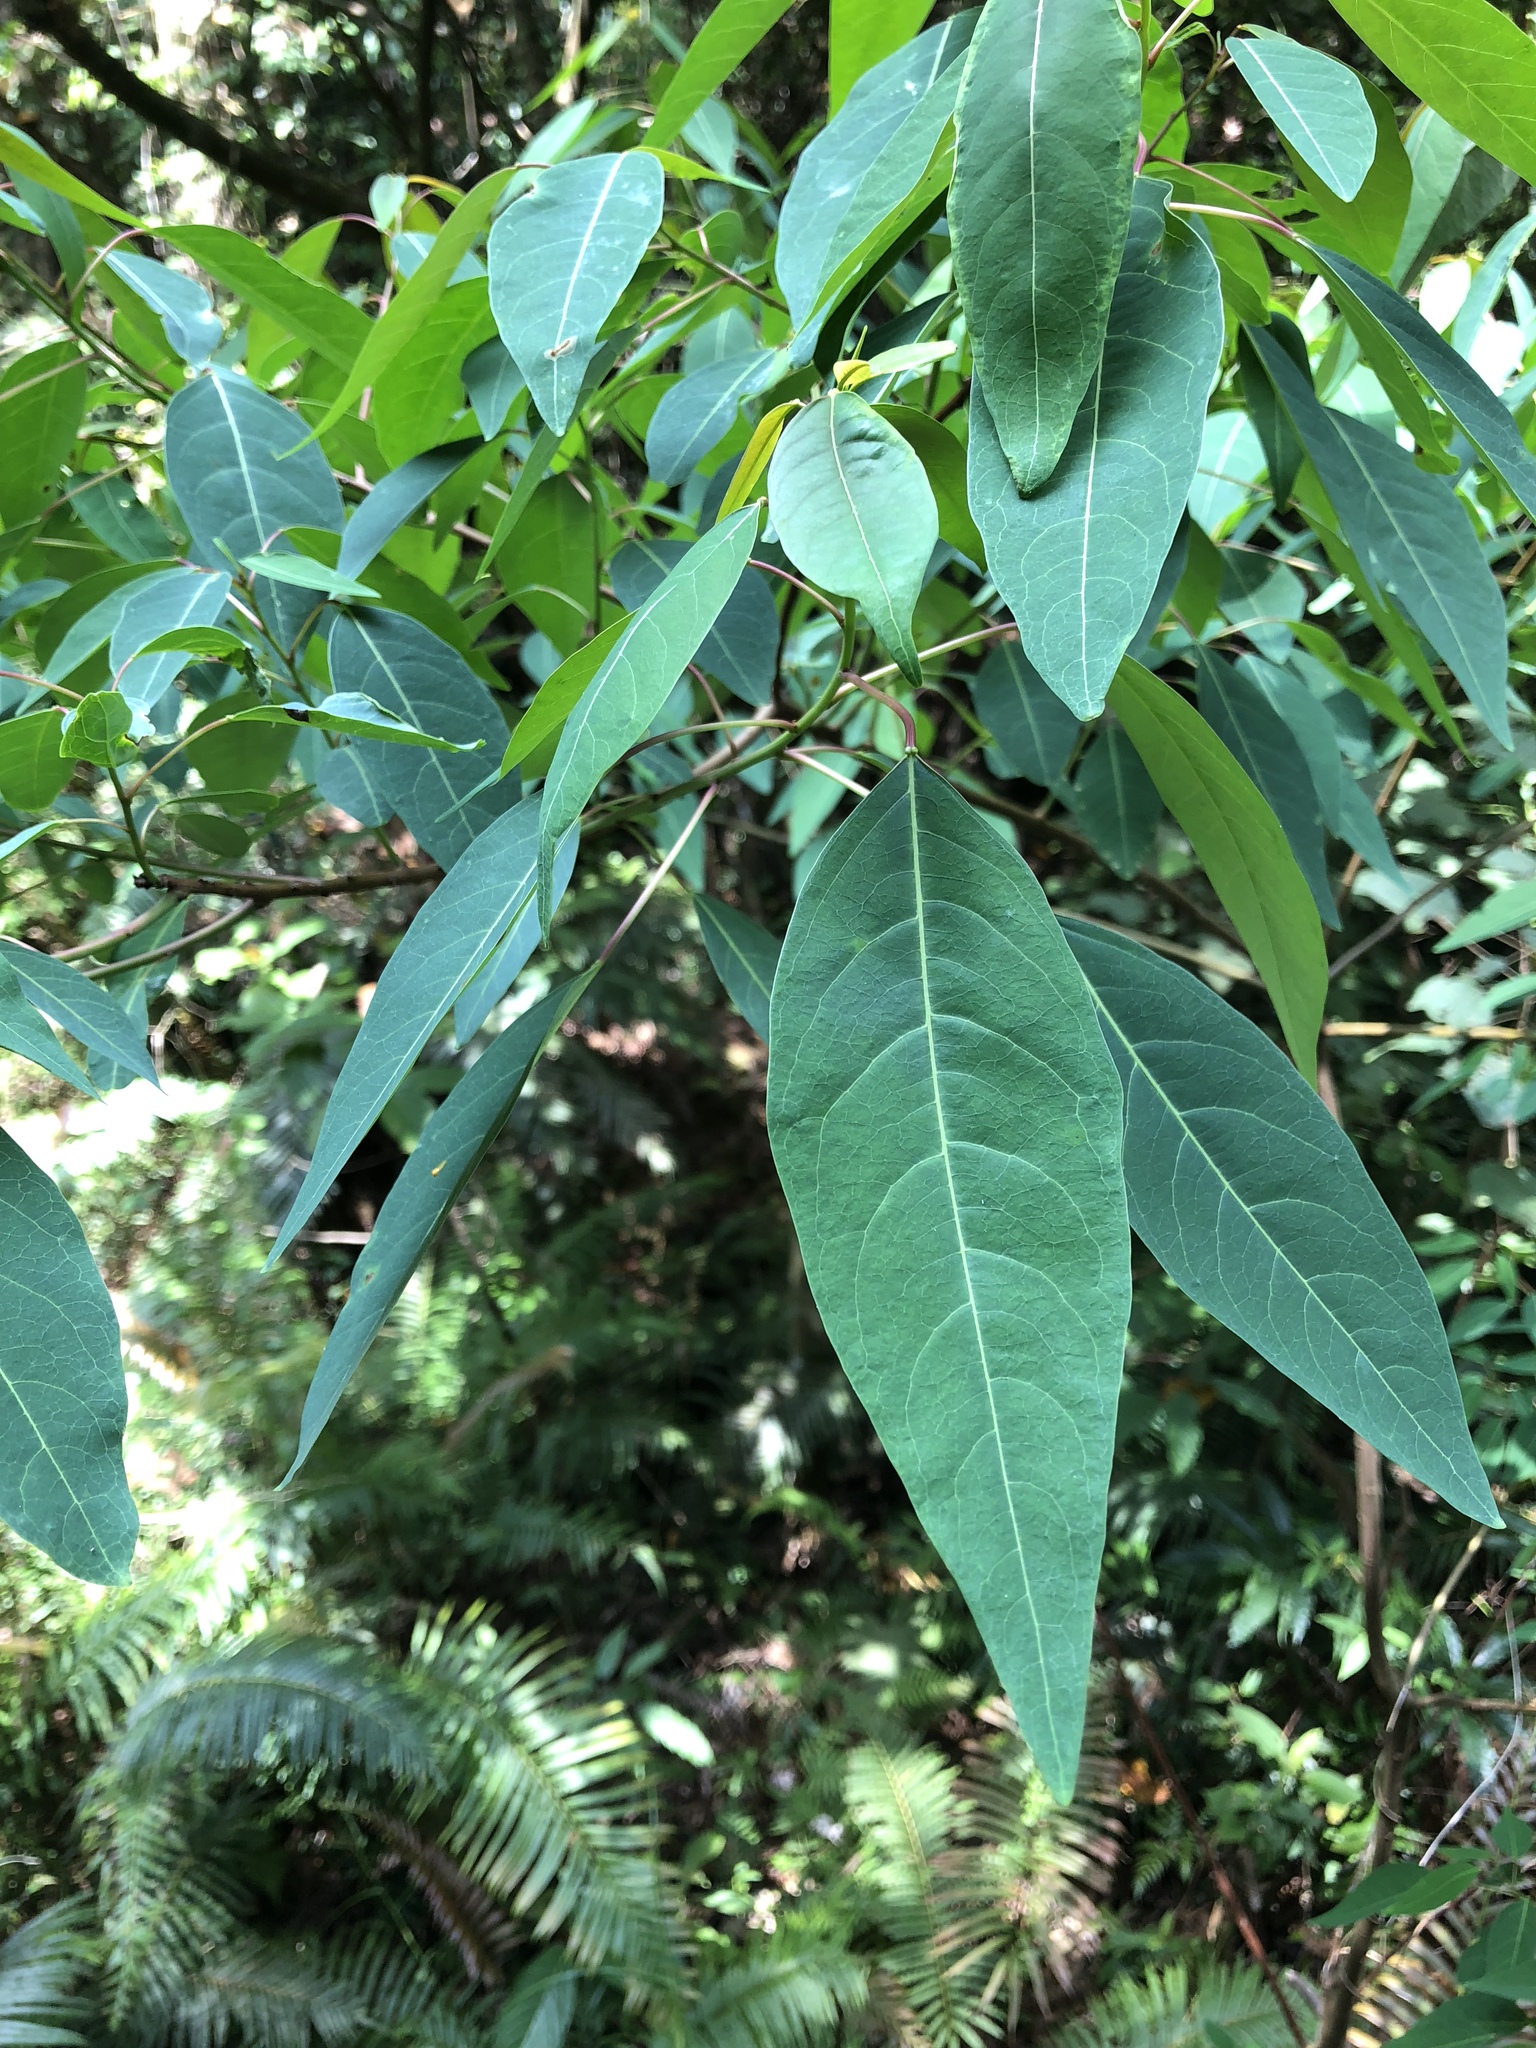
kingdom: Plantae
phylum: Tracheophyta
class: Magnoliopsida
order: Malpighiales
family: Euphorbiaceae
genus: Triadica
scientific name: Triadica cochinchinensis
